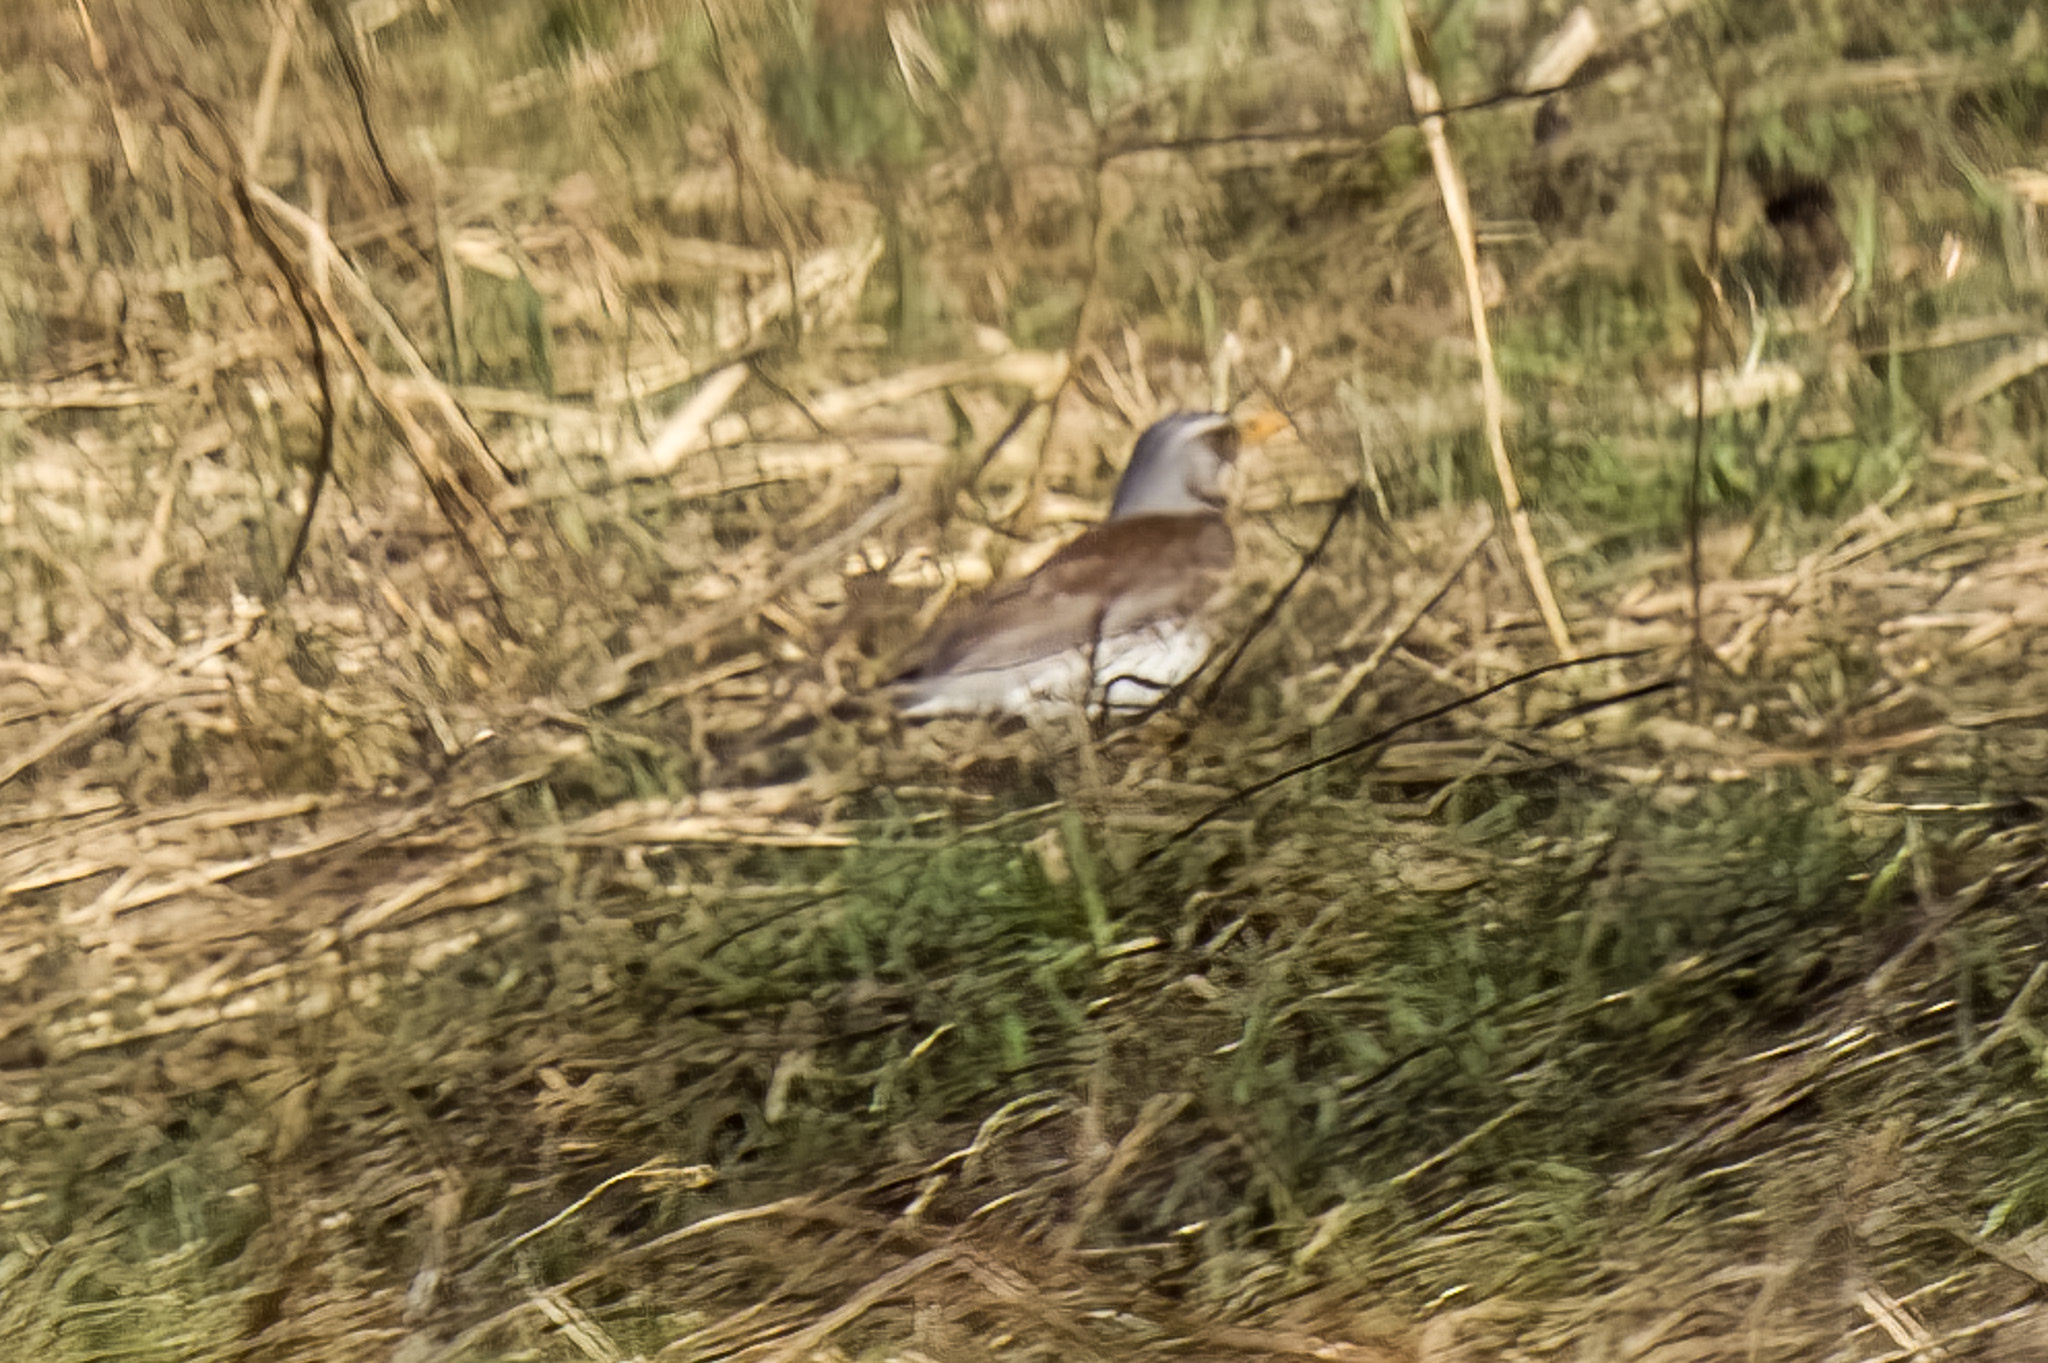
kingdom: Animalia
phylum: Chordata
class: Aves
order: Passeriformes
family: Turdidae
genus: Turdus
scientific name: Turdus pilaris
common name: Fieldfare
